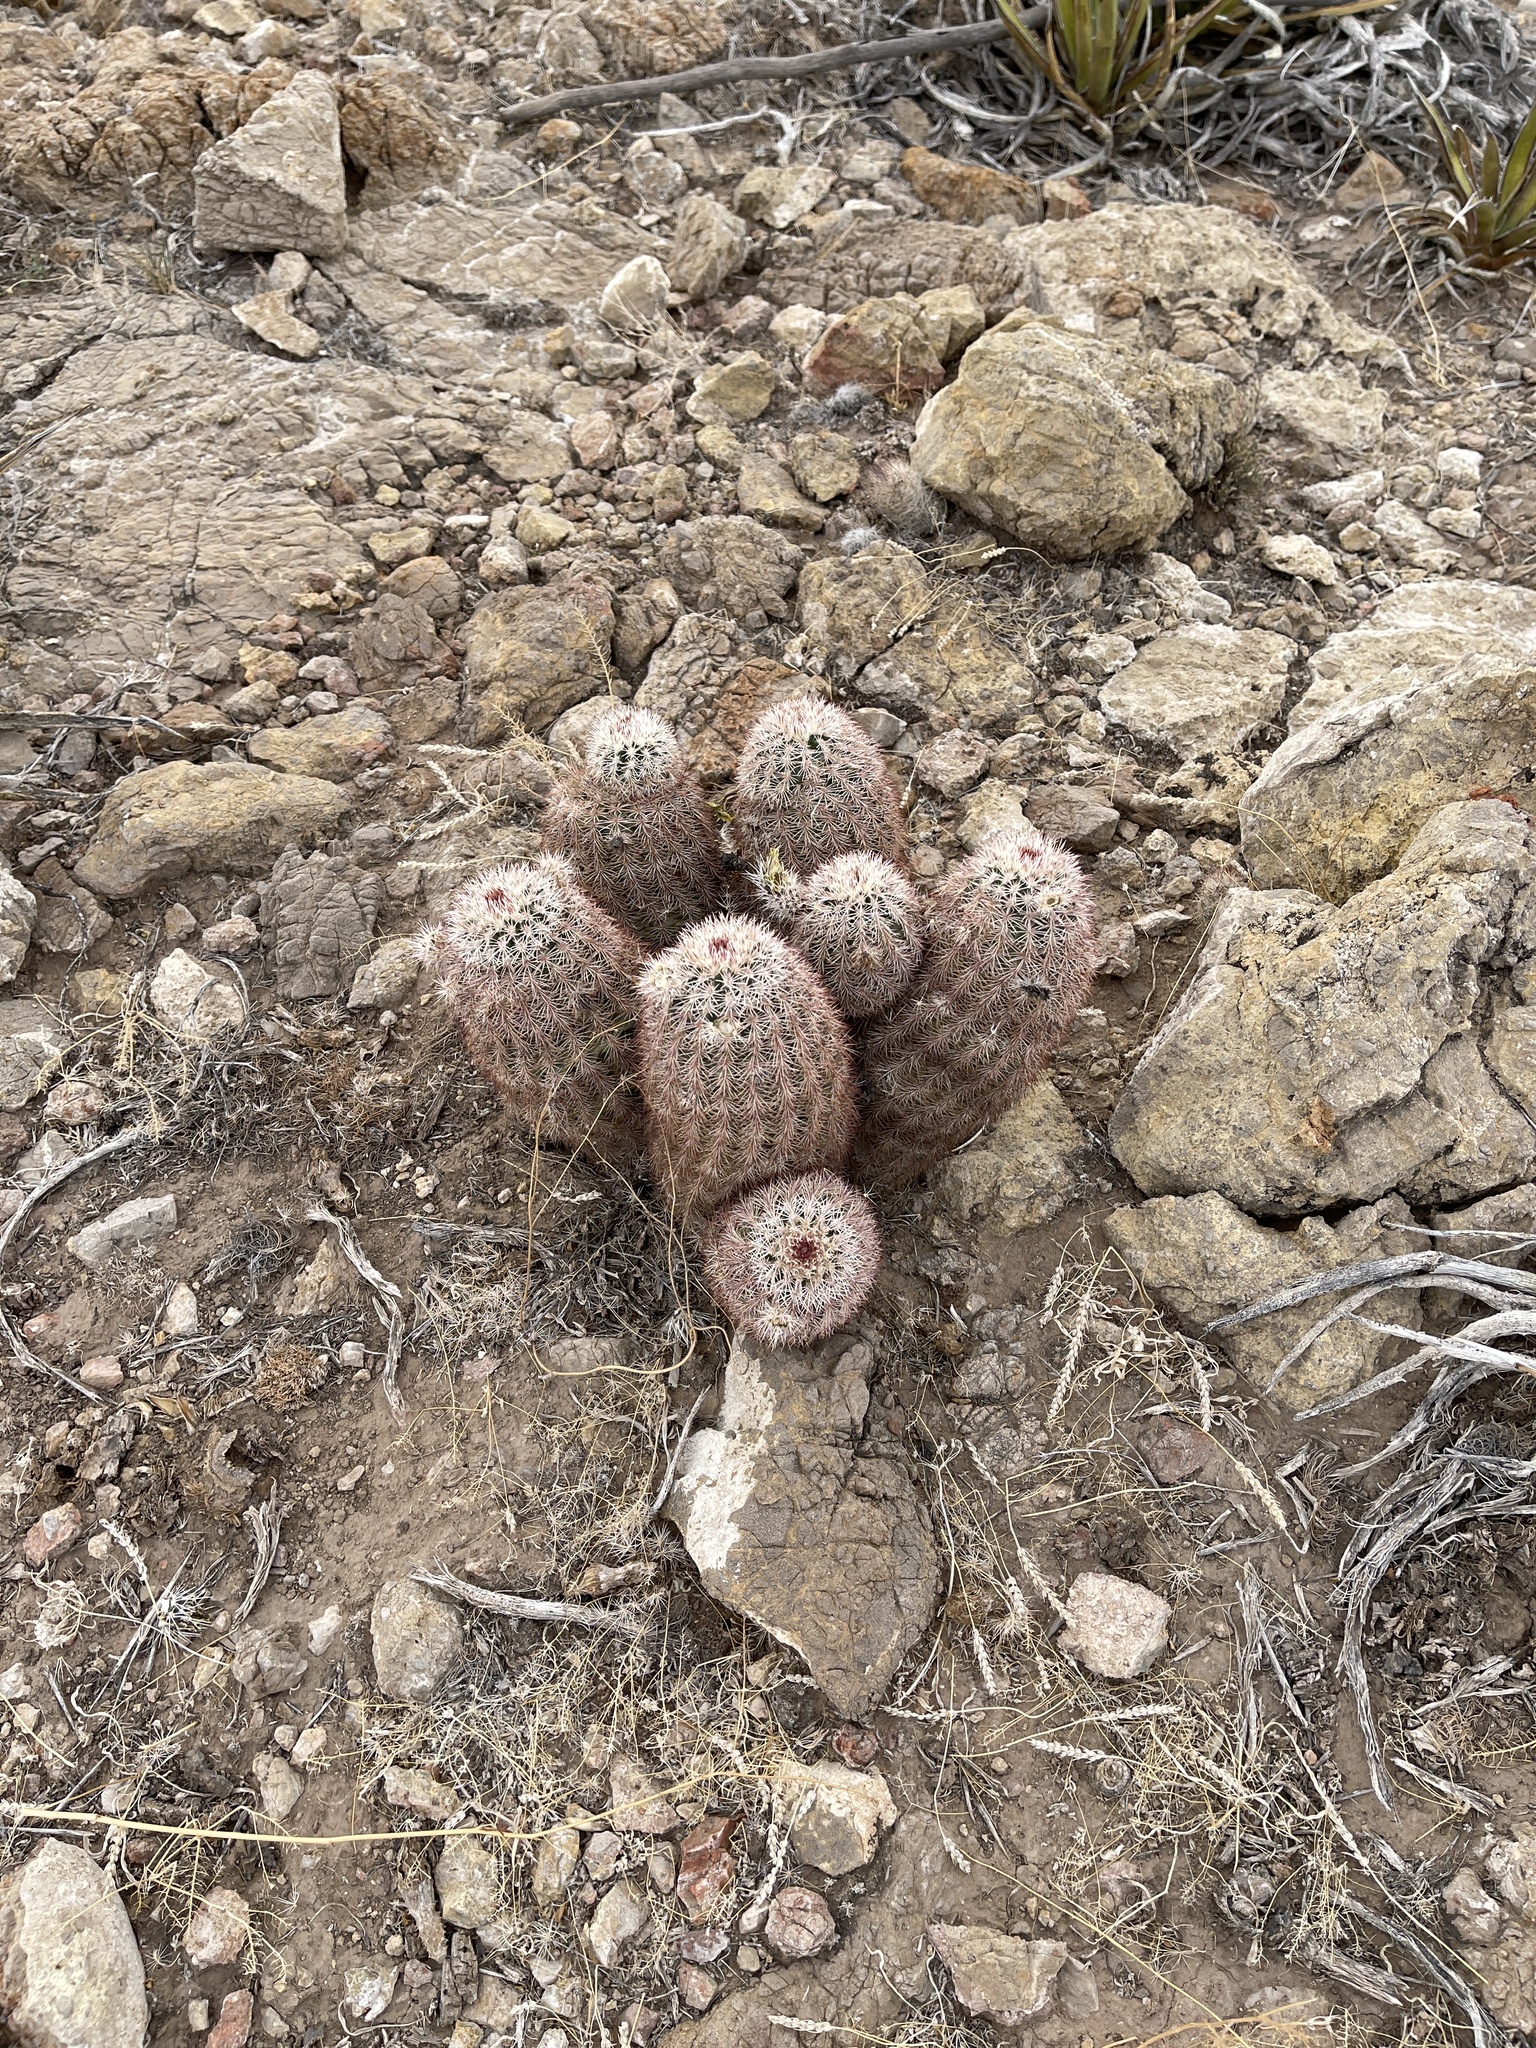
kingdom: Plantae
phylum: Tracheophyta
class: Magnoliopsida
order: Caryophyllales
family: Cactaceae
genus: Echinocereus
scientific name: Echinocereus dasyacanthus
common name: Spiny hedgehog cactus
